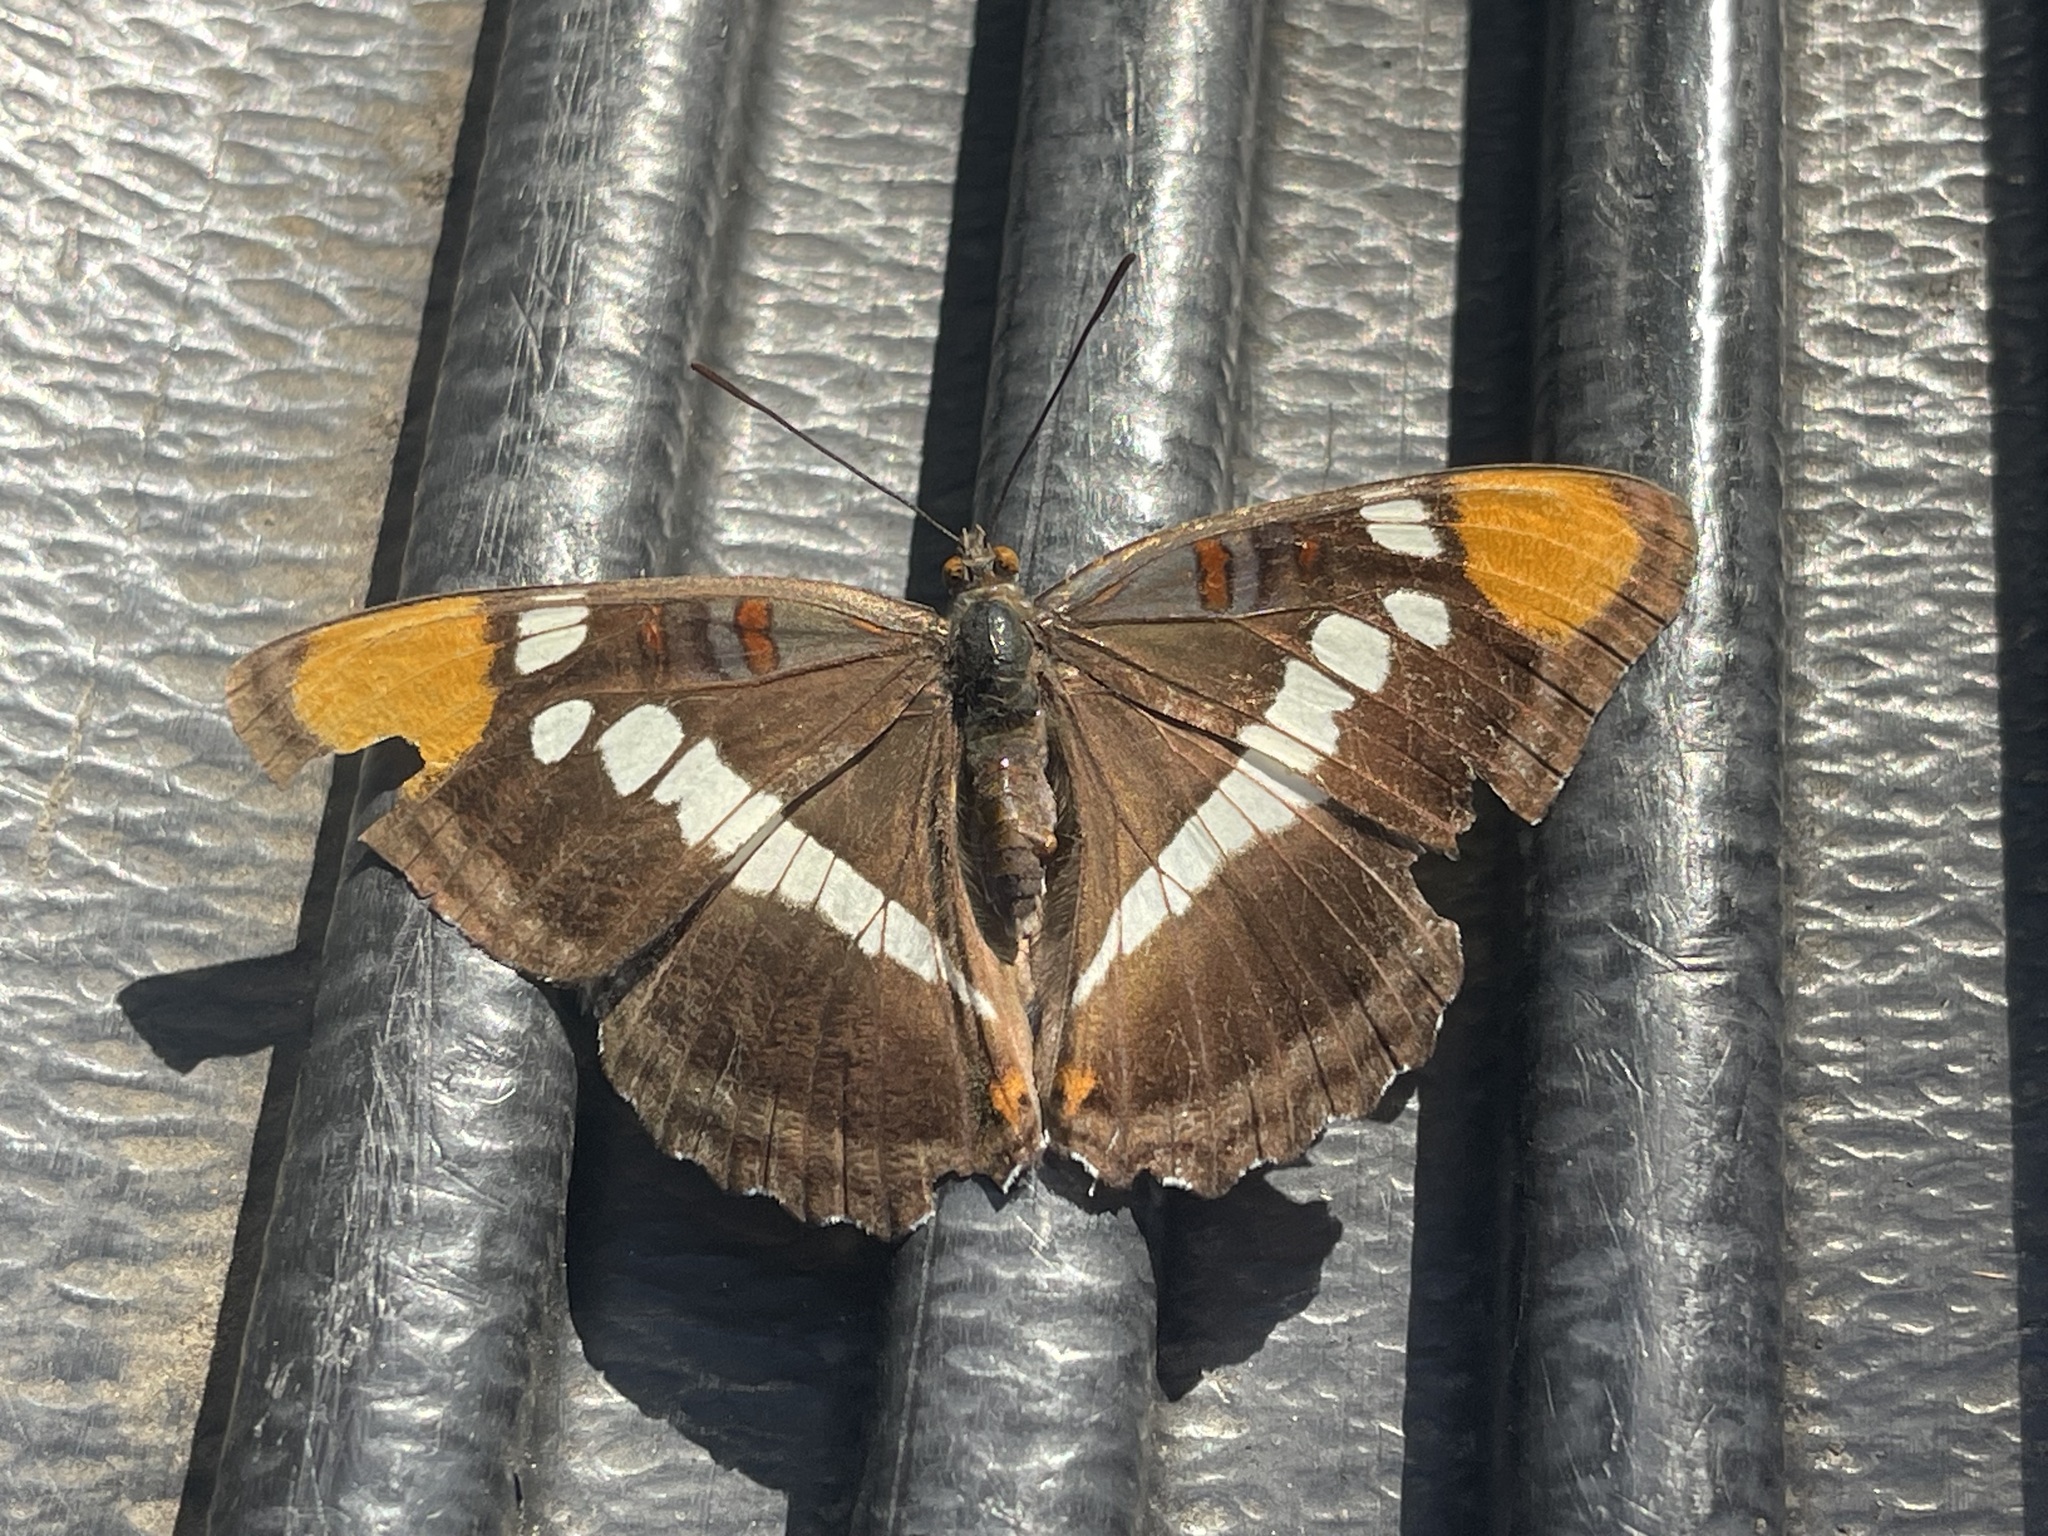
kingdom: Animalia
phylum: Arthropoda
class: Insecta
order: Lepidoptera
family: Nymphalidae
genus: Limenitis
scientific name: Limenitis bredowii
